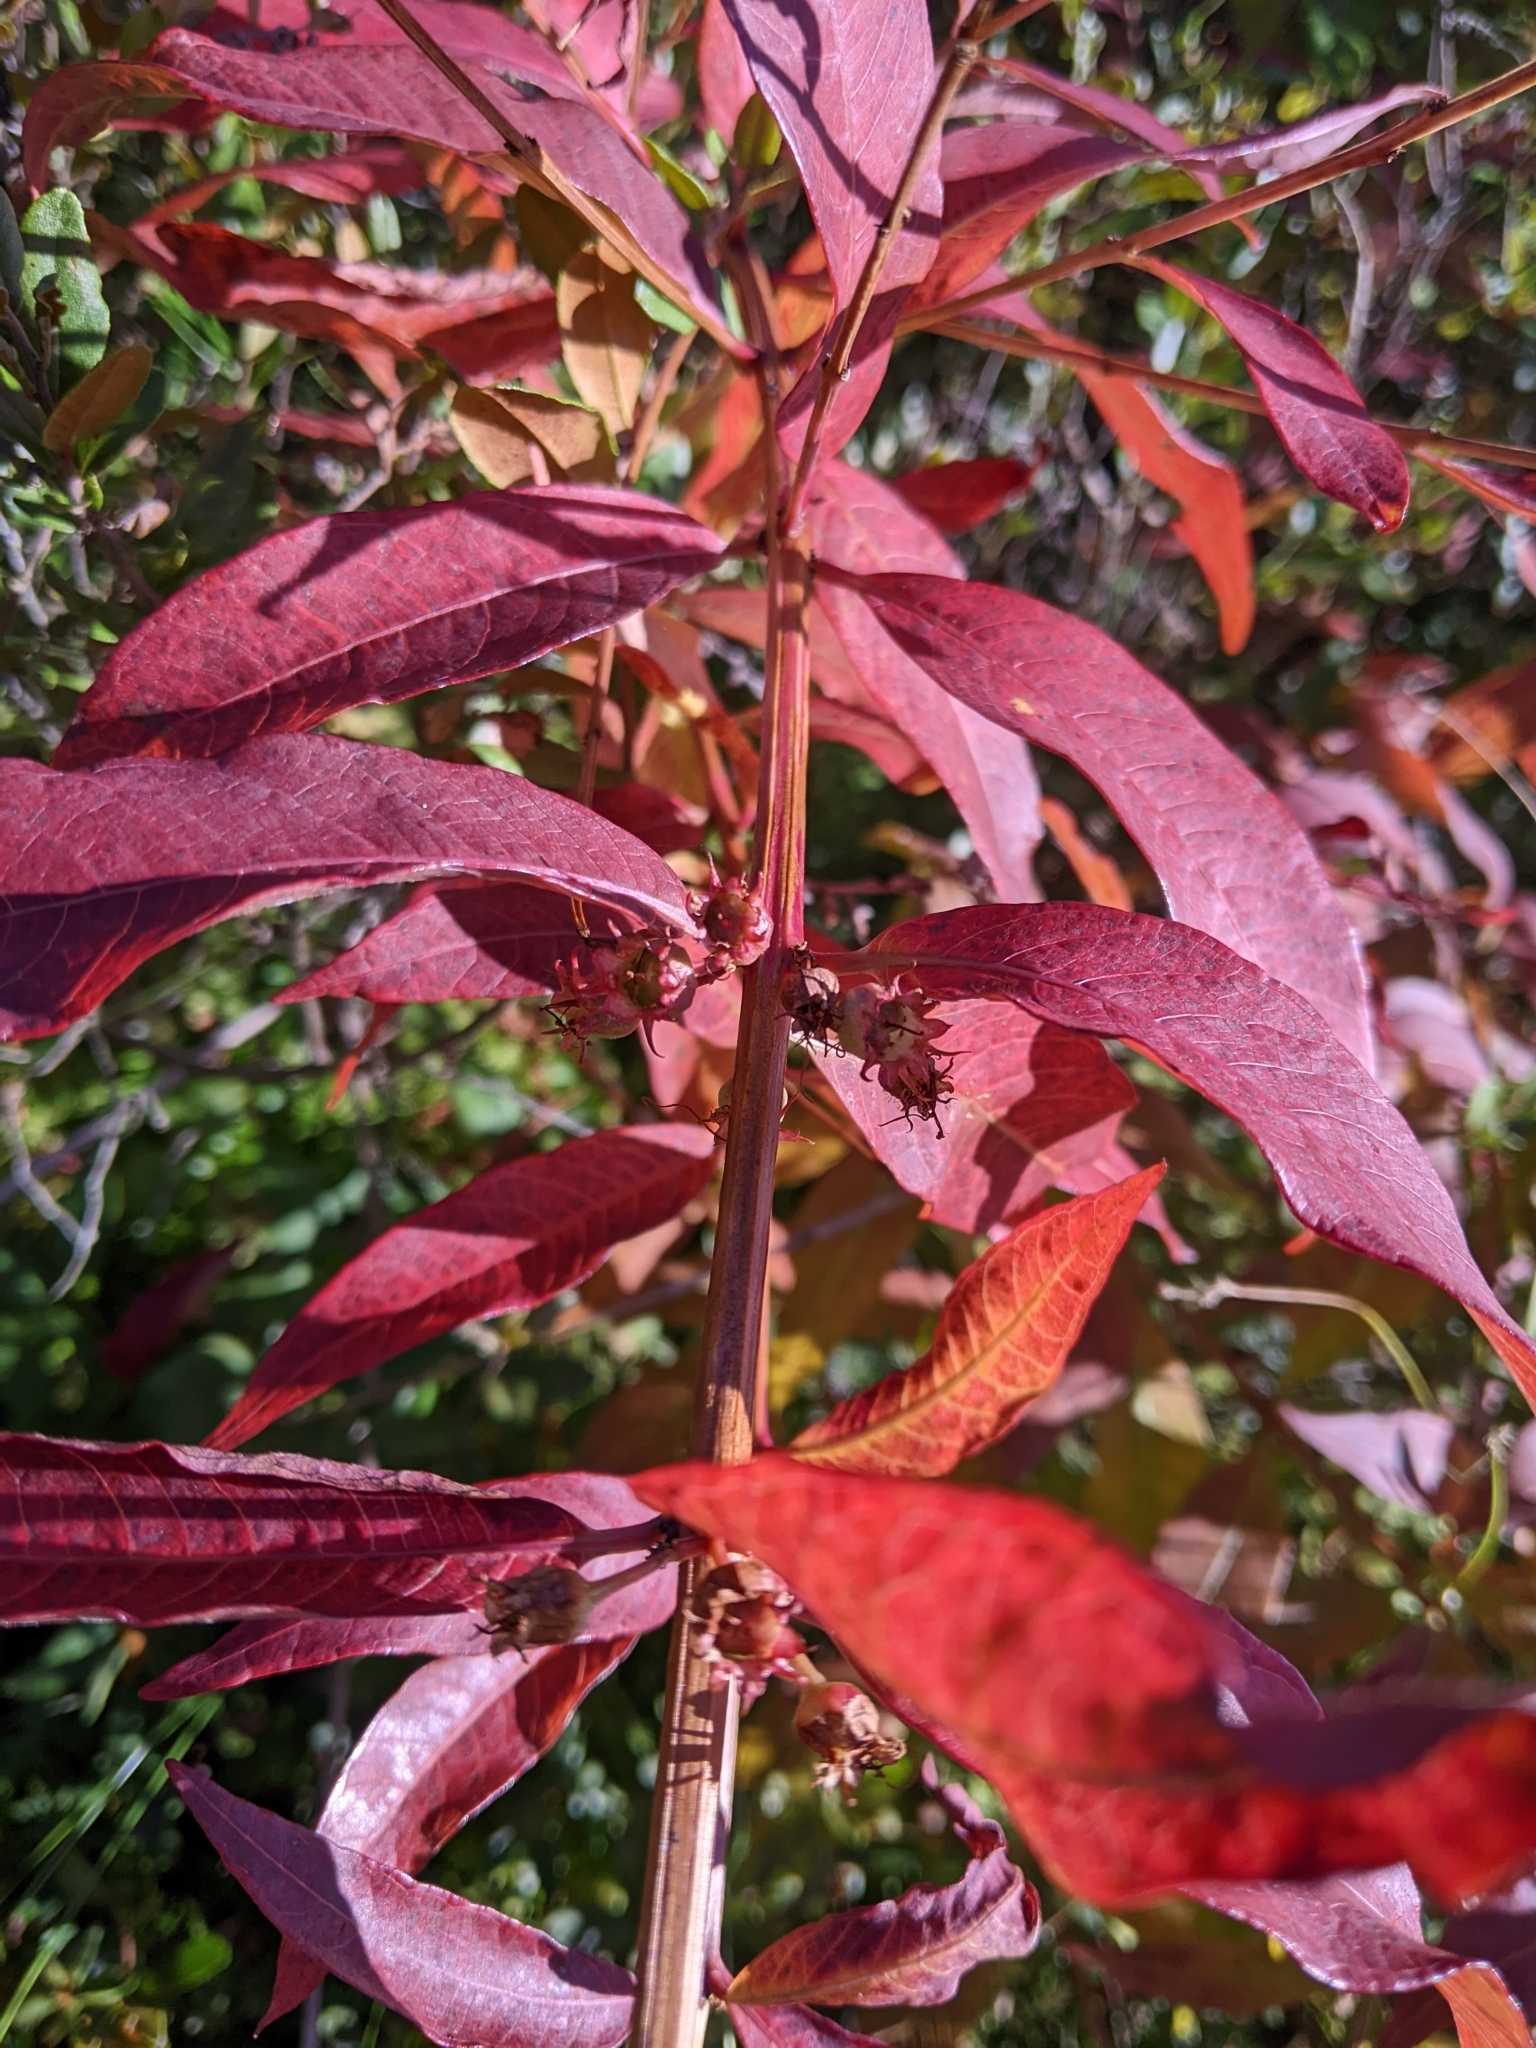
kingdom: Plantae
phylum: Tracheophyta
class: Magnoliopsida
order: Myrtales
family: Lythraceae
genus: Decodon
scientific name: Decodon verticillatus
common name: Hairy swamp loosestrife
